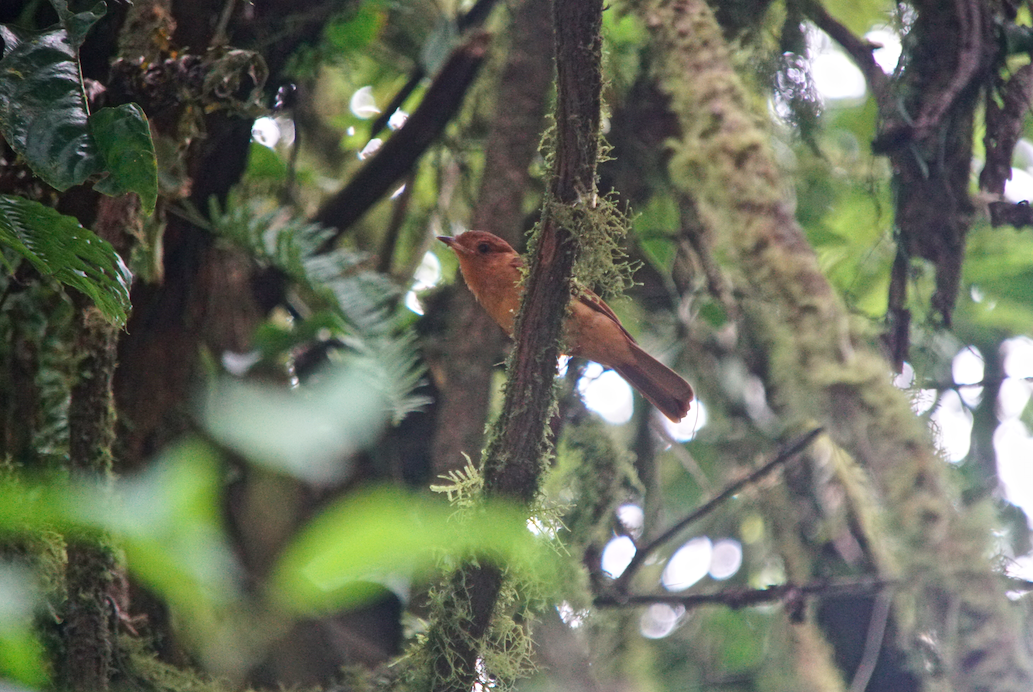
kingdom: Animalia
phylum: Chordata
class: Aves
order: Passeriformes
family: Cotingidae
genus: Lipaugus
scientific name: Lipaugus unirufus
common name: Rufous piha
